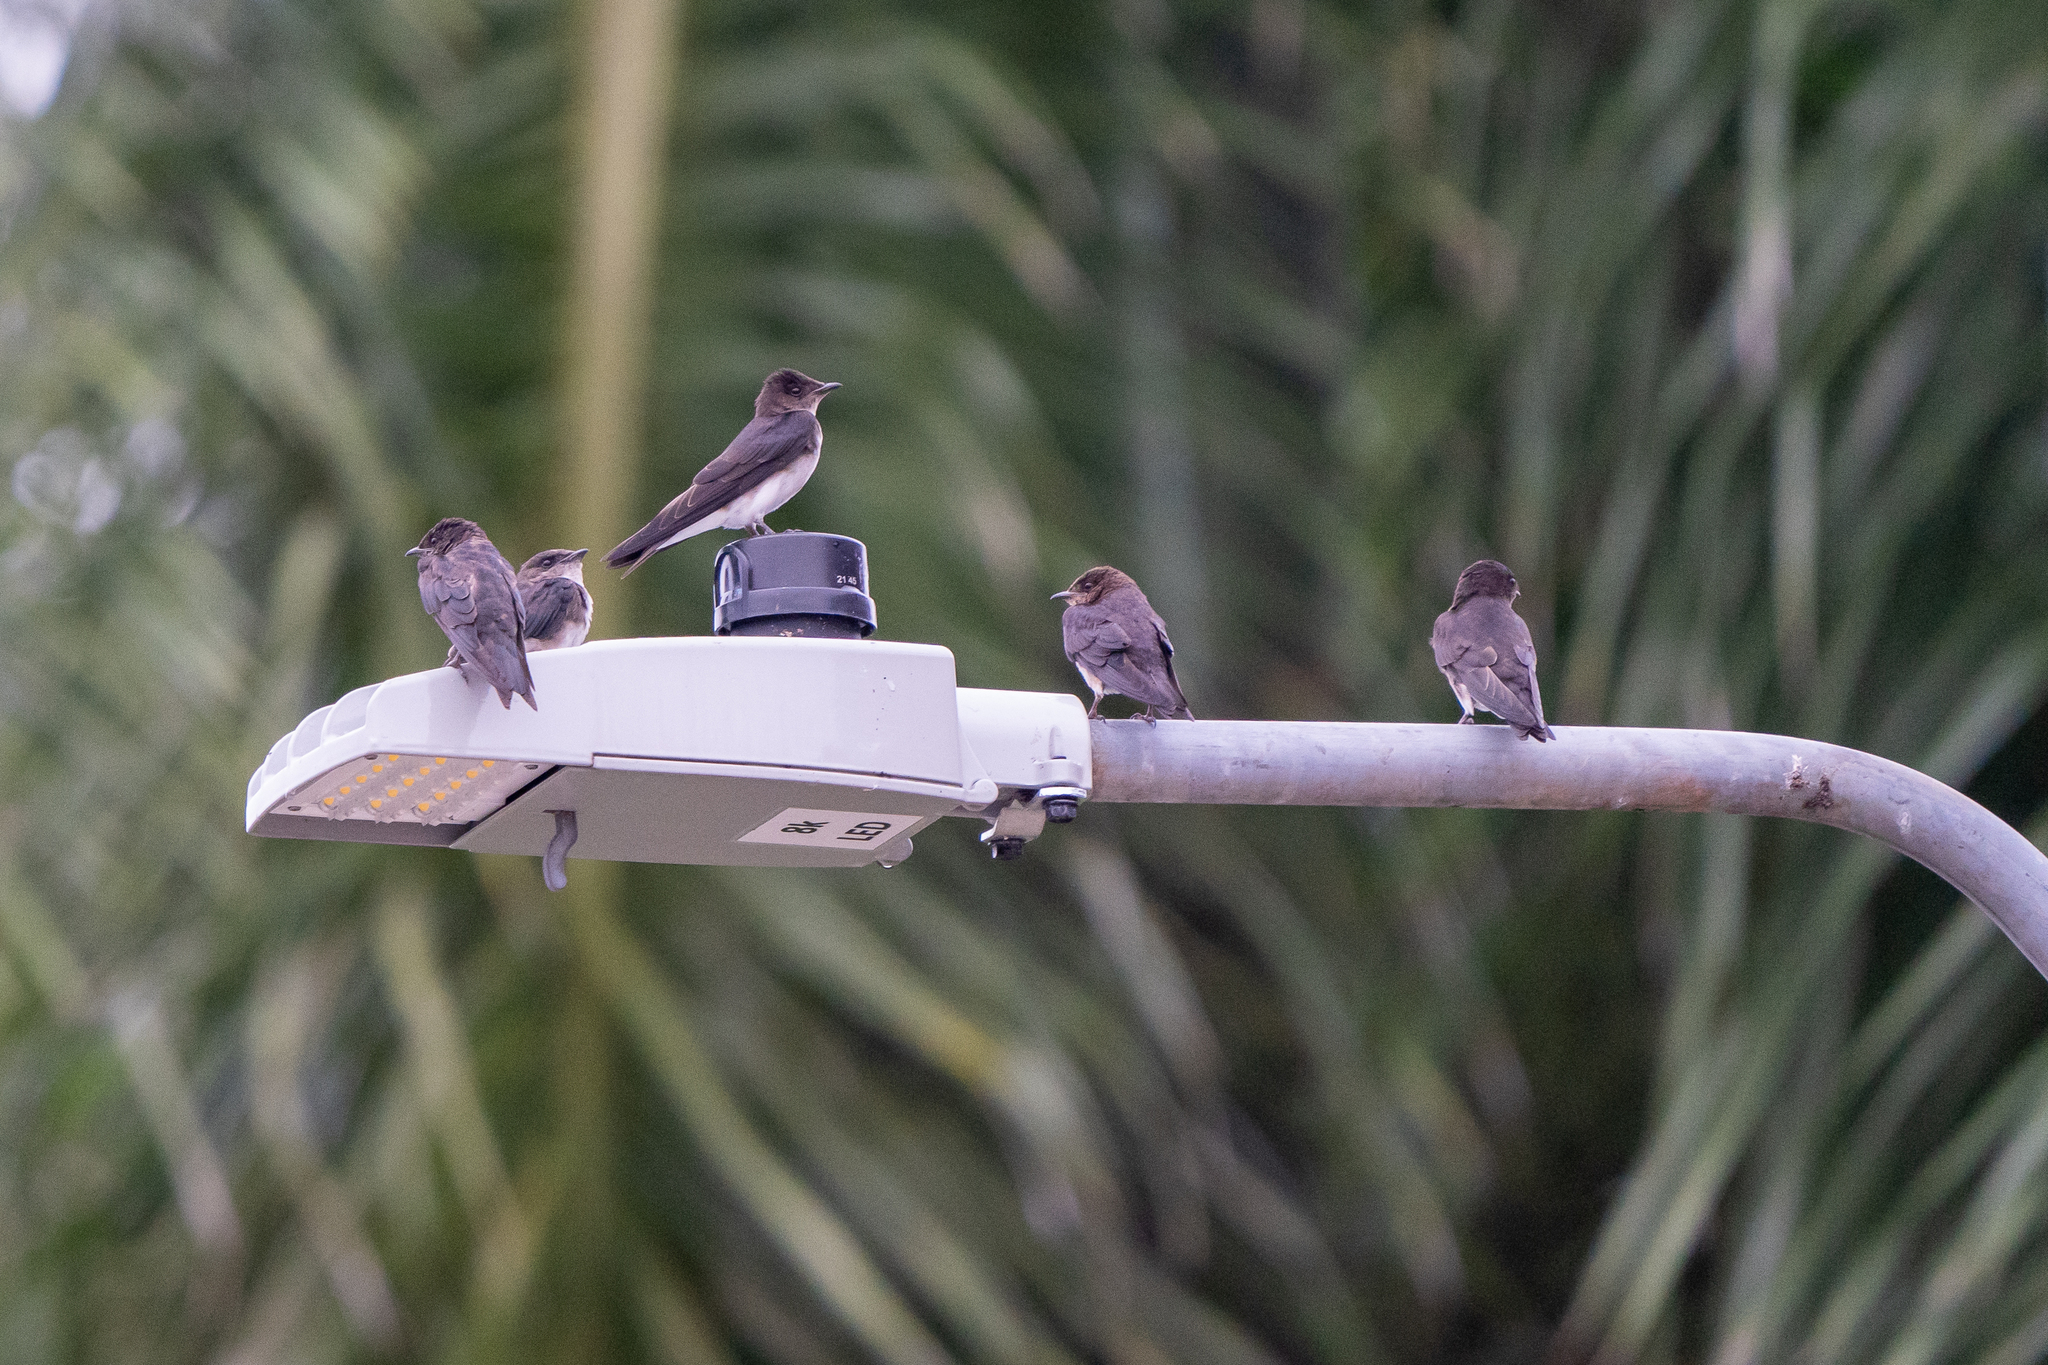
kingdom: Animalia
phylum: Chordata
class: Aves
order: Passeriformes
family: Hirundinidae
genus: Progne
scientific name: Progne chalybea
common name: Grey-breasted martin
